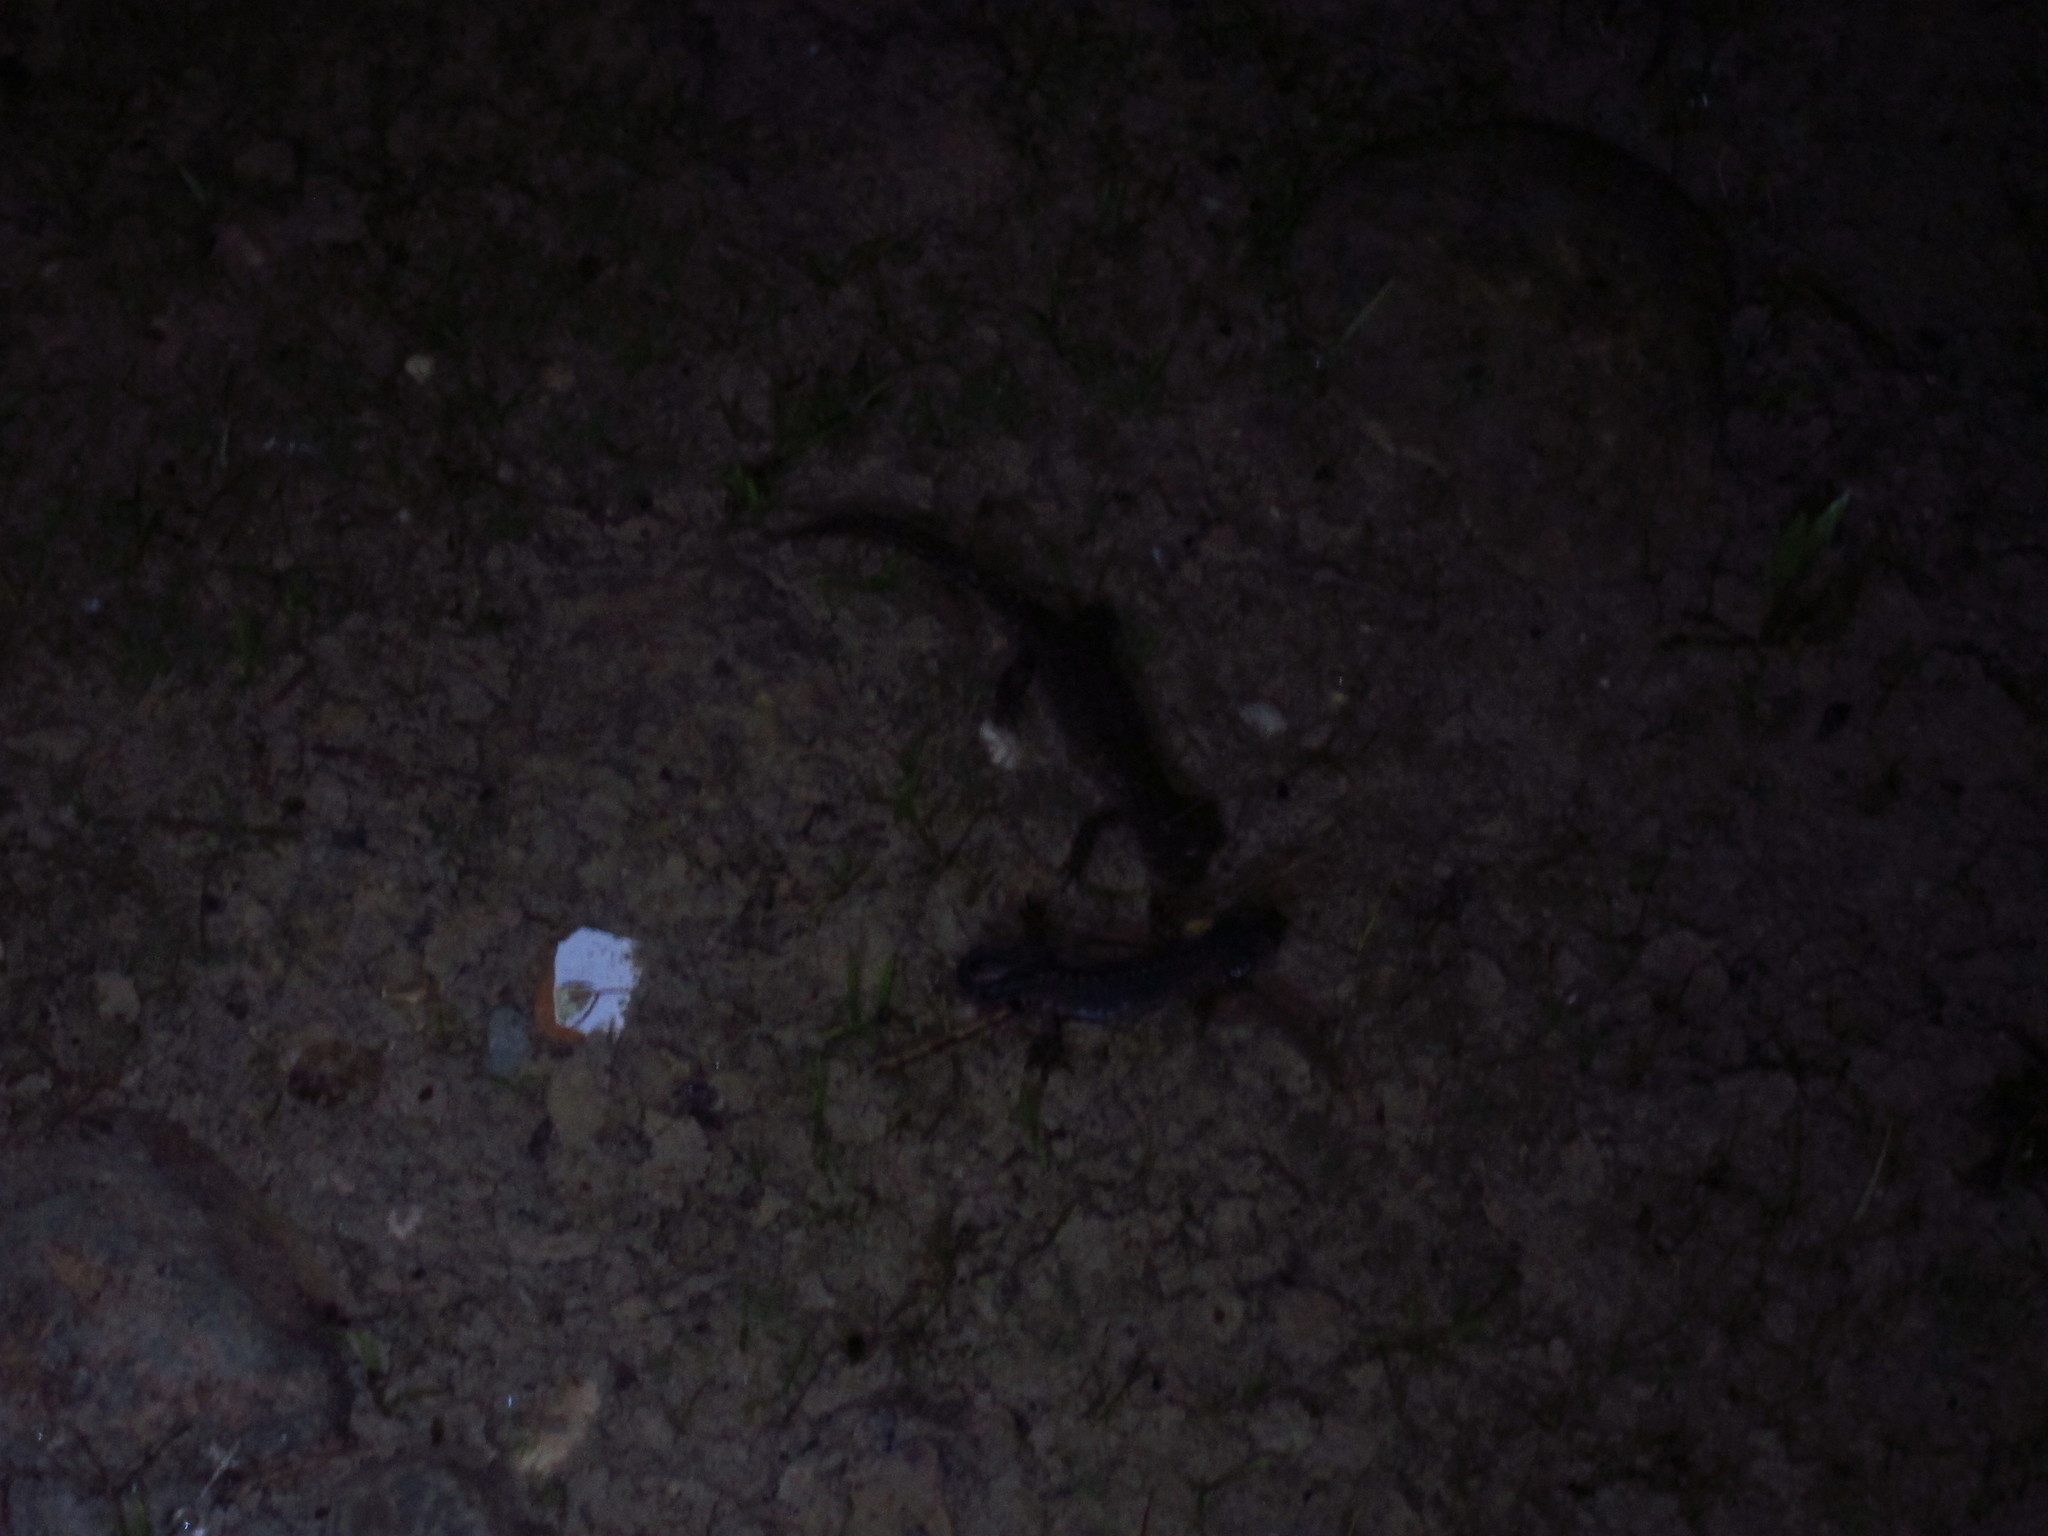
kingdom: Animalia
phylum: Chordata
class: Amphibia
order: Caudata
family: Salamandridae
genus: Ichthyosaura
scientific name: Ichthyosaura alpestris
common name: Alpine newt
